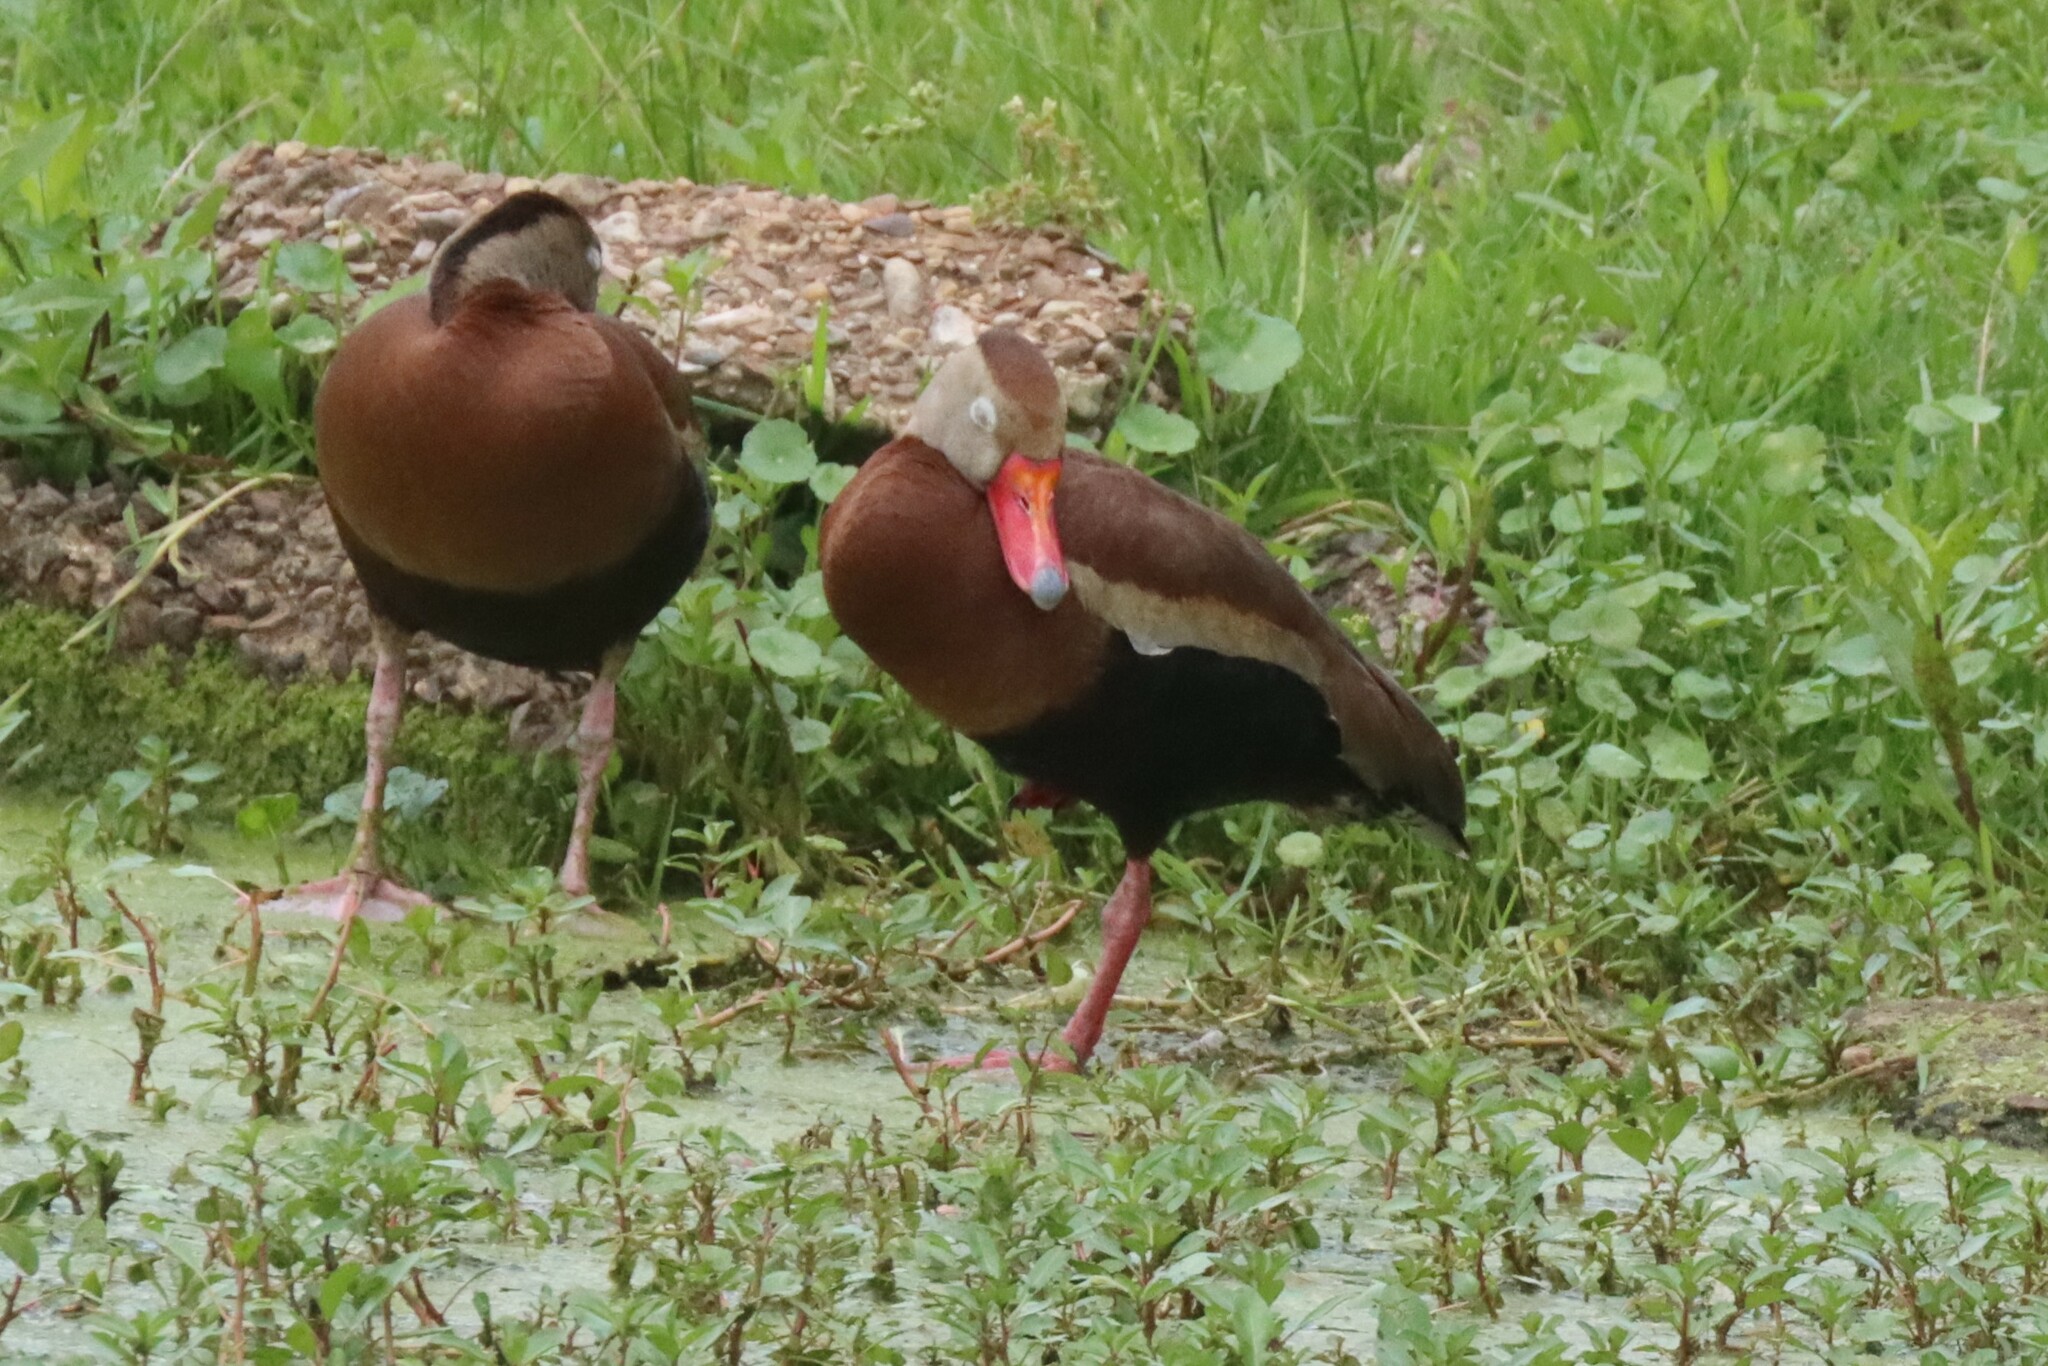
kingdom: Animalia
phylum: Chordata
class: Aves
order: Anseriformes
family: Anatidae
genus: Dendrocygna
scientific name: Dendrocygna autumnalis
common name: Black-bellied whistling duck
